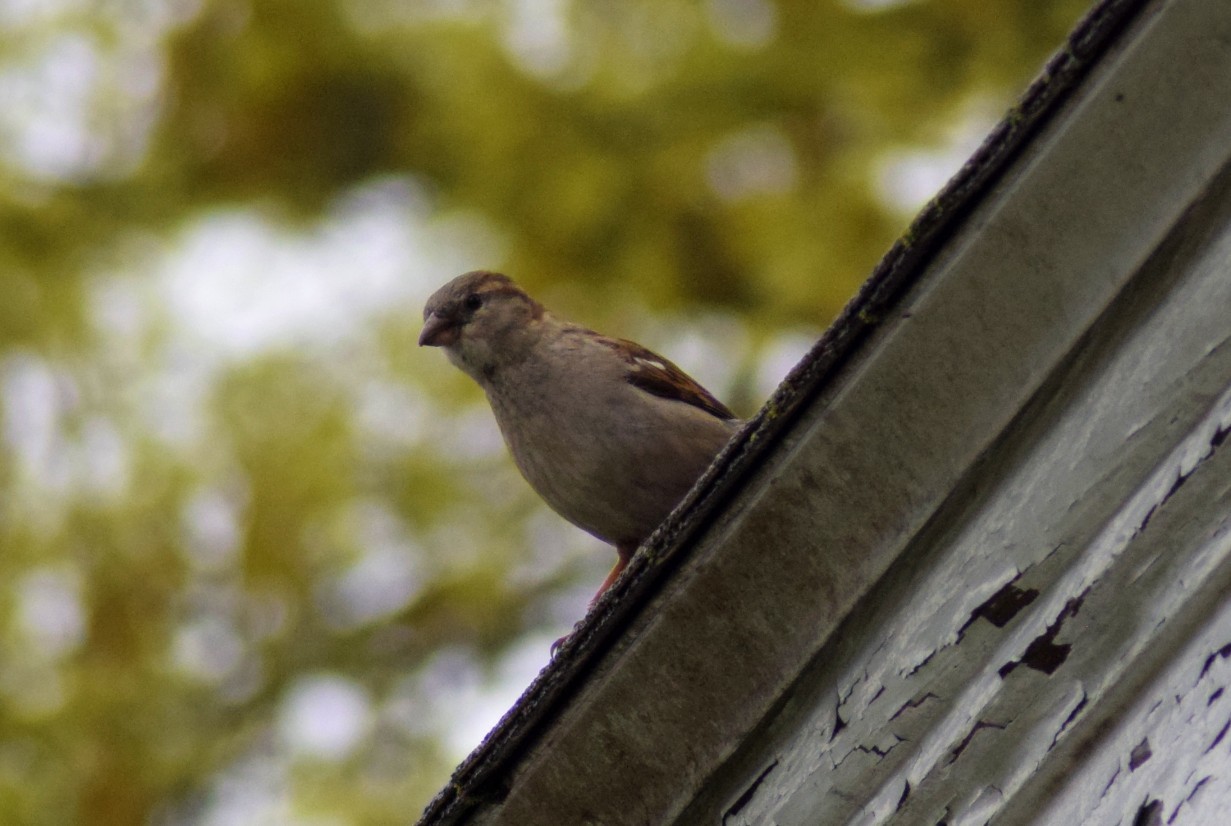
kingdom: Animalia
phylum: Chordata
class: Aves
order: Passeriformes
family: Passeridae
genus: Passer
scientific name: Passer domesticus
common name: House sparrow
